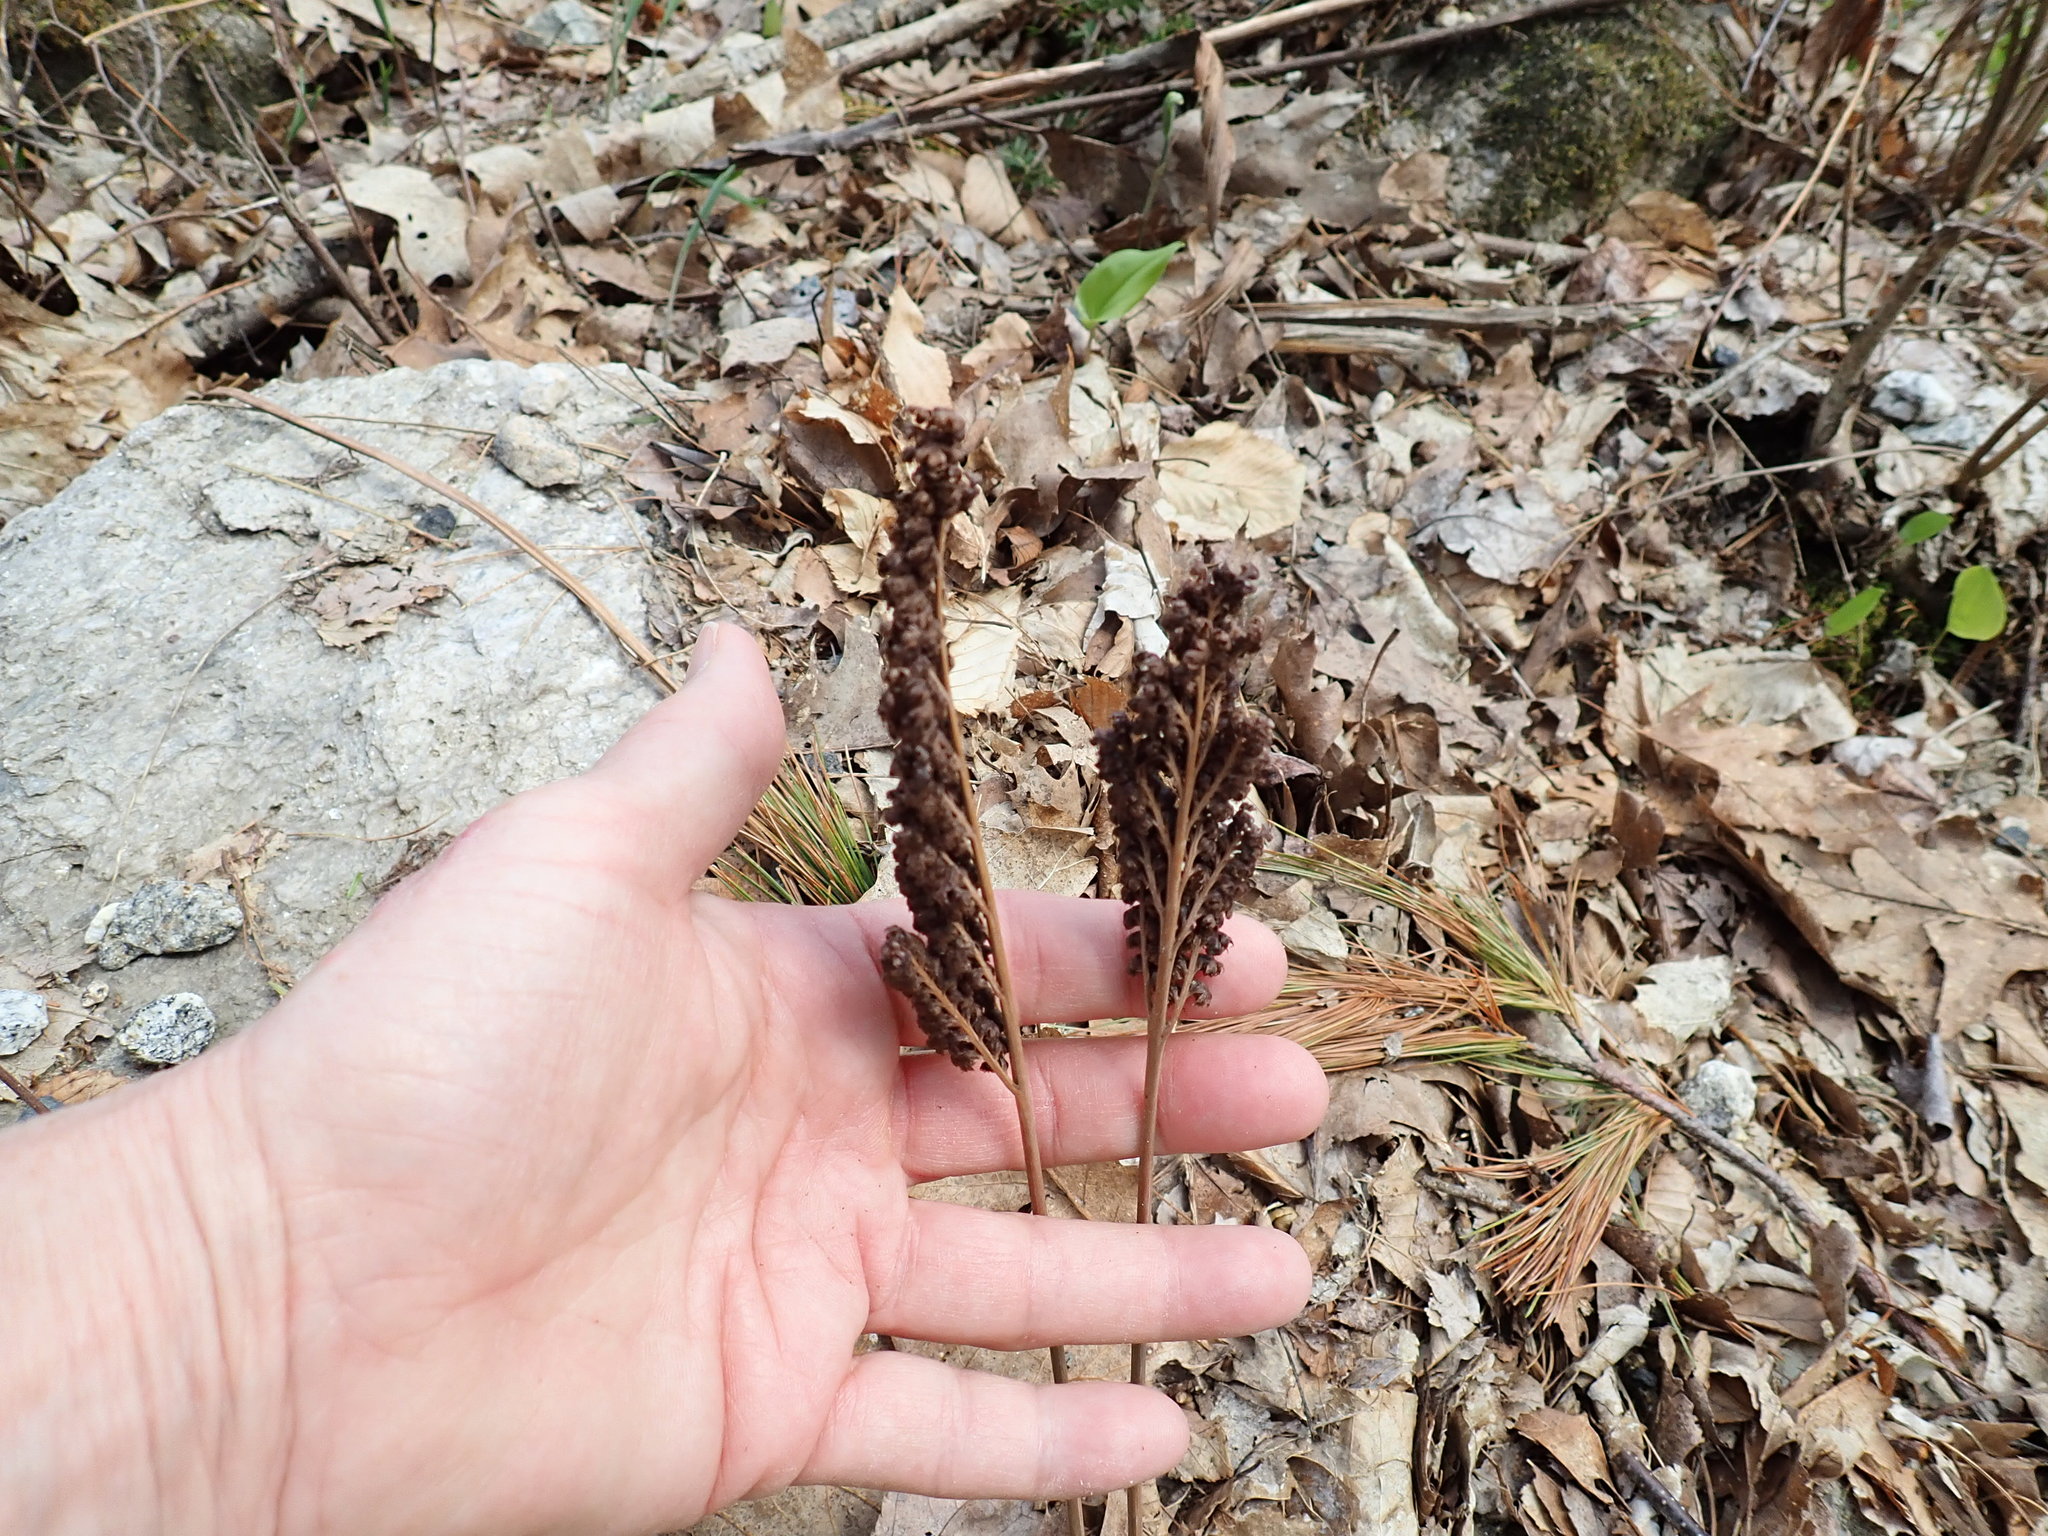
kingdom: Plantae
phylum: Tracheophyta
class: Polypodiopsida
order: Polypodiales
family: Onocleaceae
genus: Onoclea
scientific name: Onoclea sensibilis
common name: Sensitive fern
